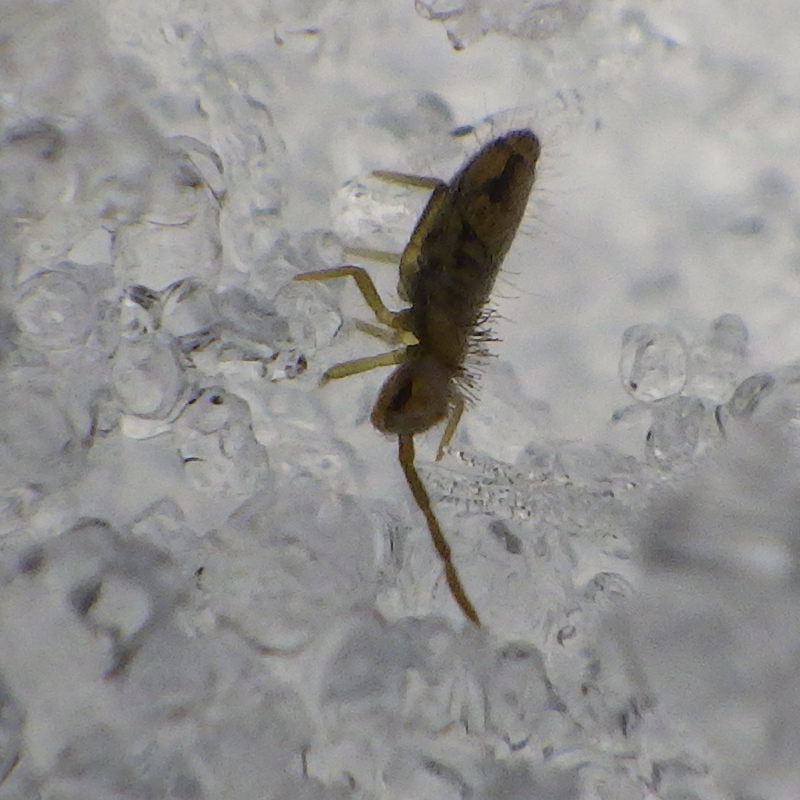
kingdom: Animalia
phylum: Arthropoda
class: Collembola
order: Entomobryomorpha
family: Entomobryidae
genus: Entomobrya
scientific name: Entomobrya nivalis
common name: Cosmopolitan springtail
